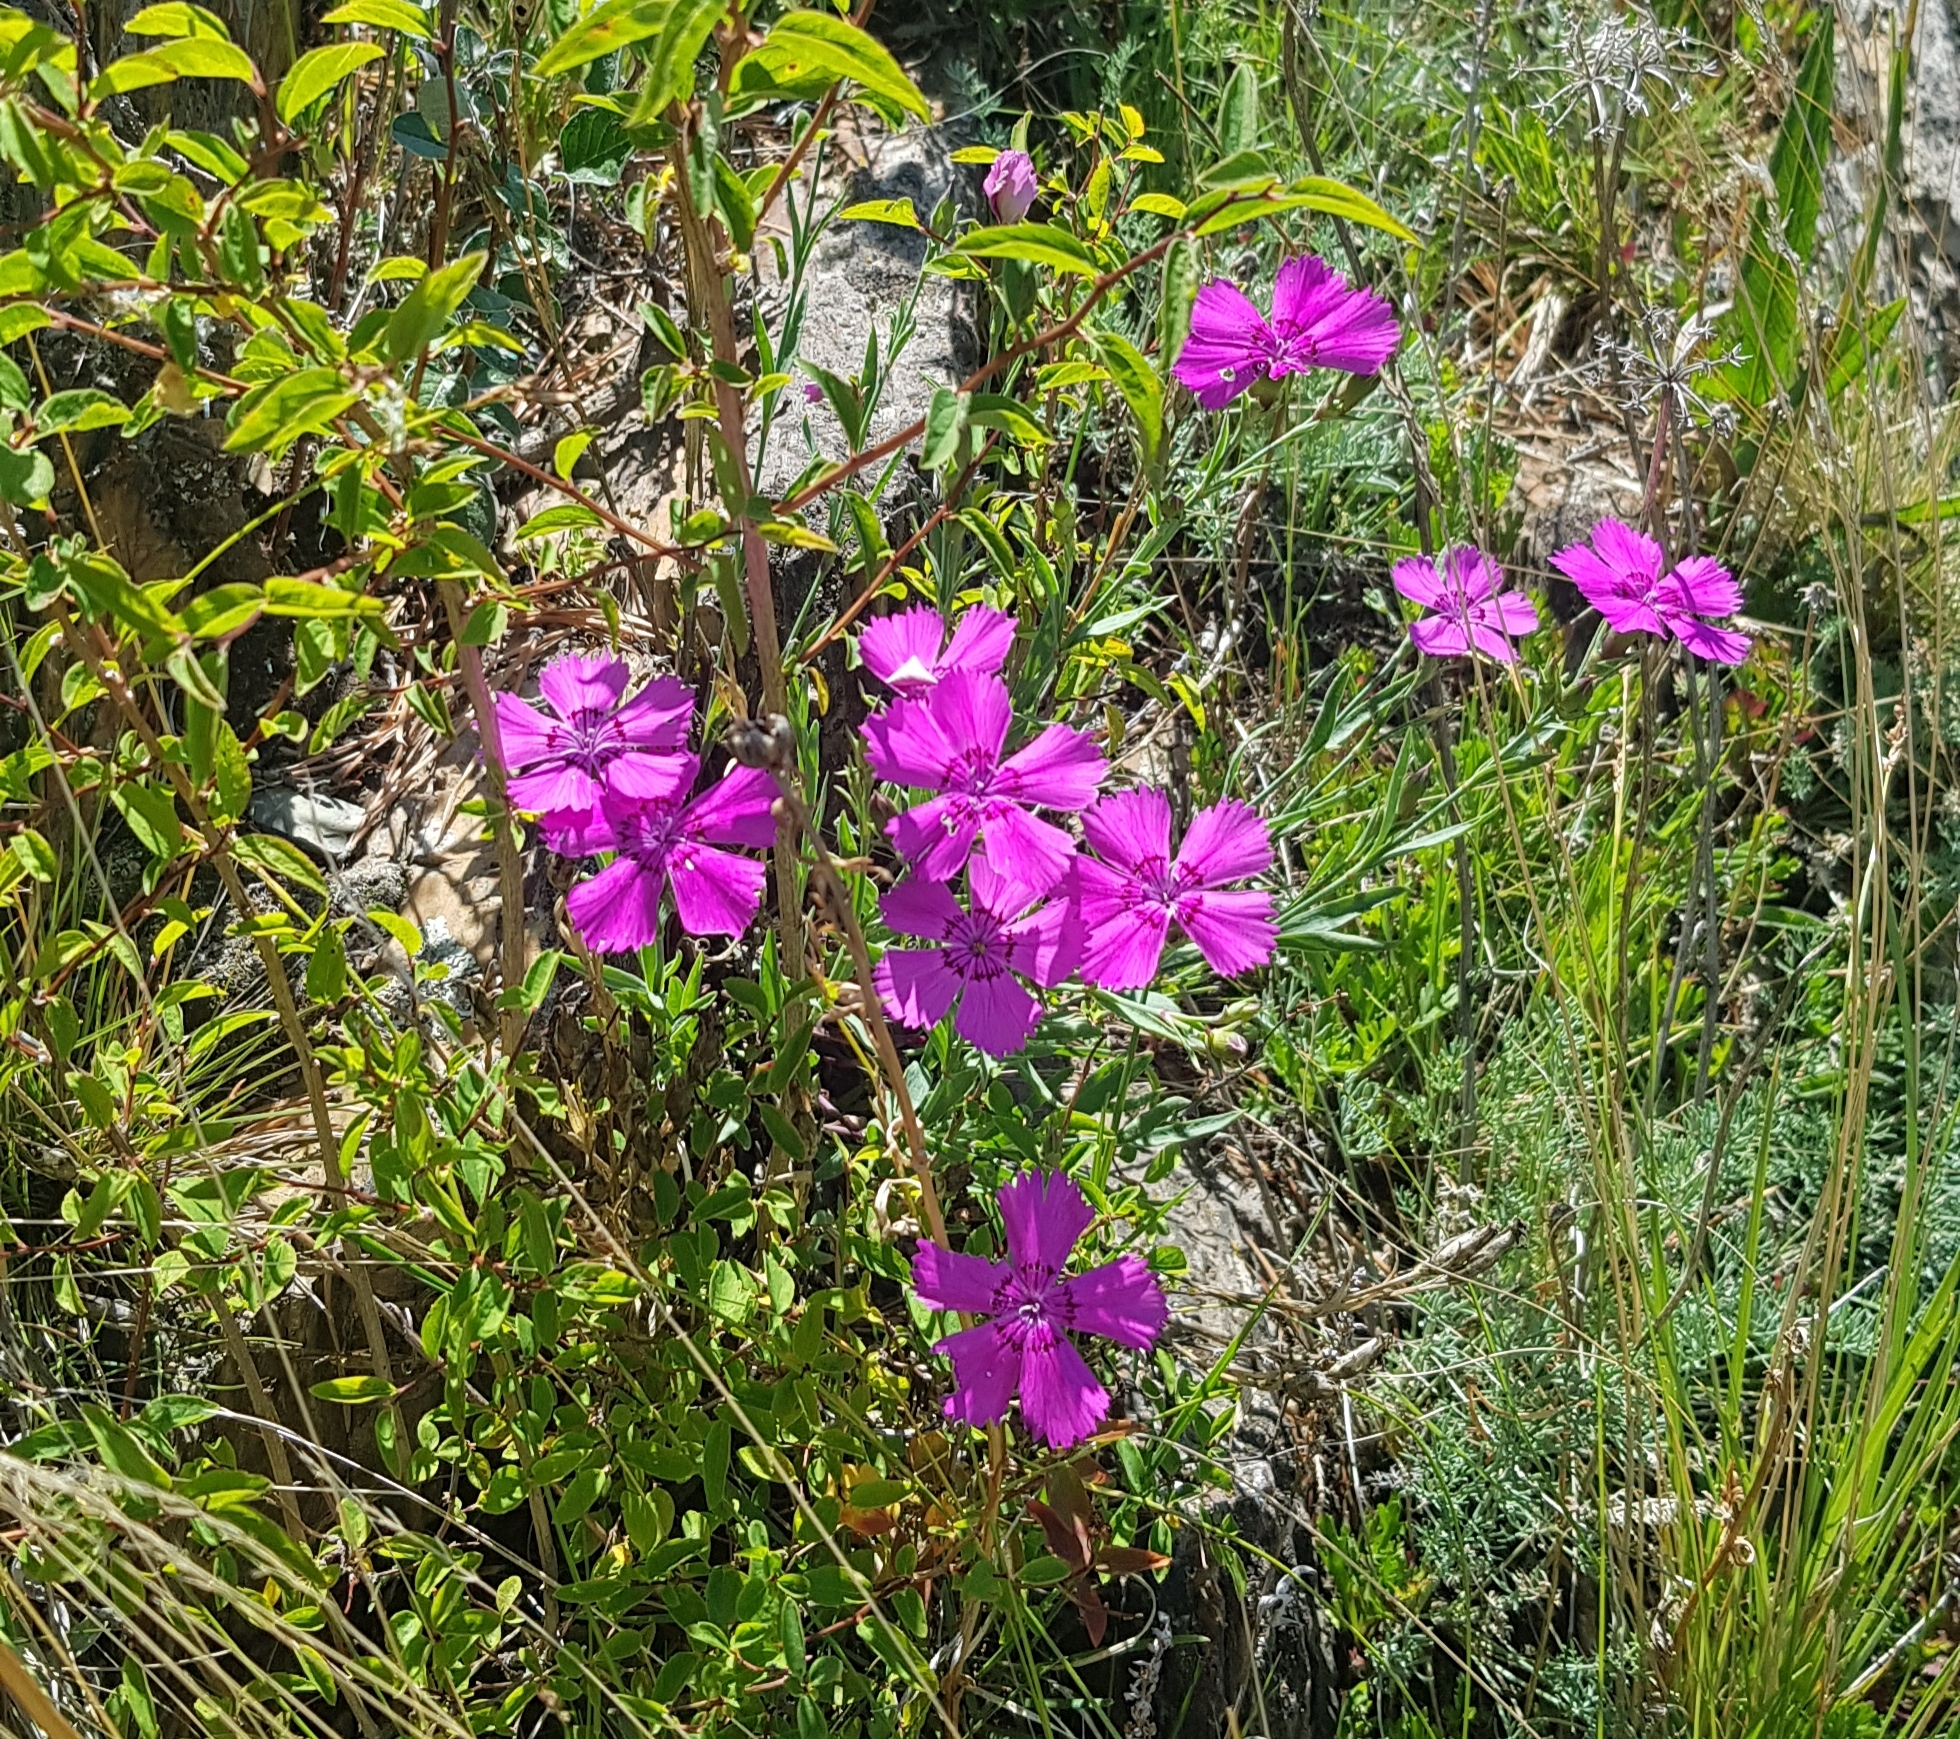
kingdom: Plantae
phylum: Tracheophyta
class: Magnoliopsida
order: Caryophyllales
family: Caryophyllaceae
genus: Dianthus
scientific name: Dianthus chinensis
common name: Rainbow pink
